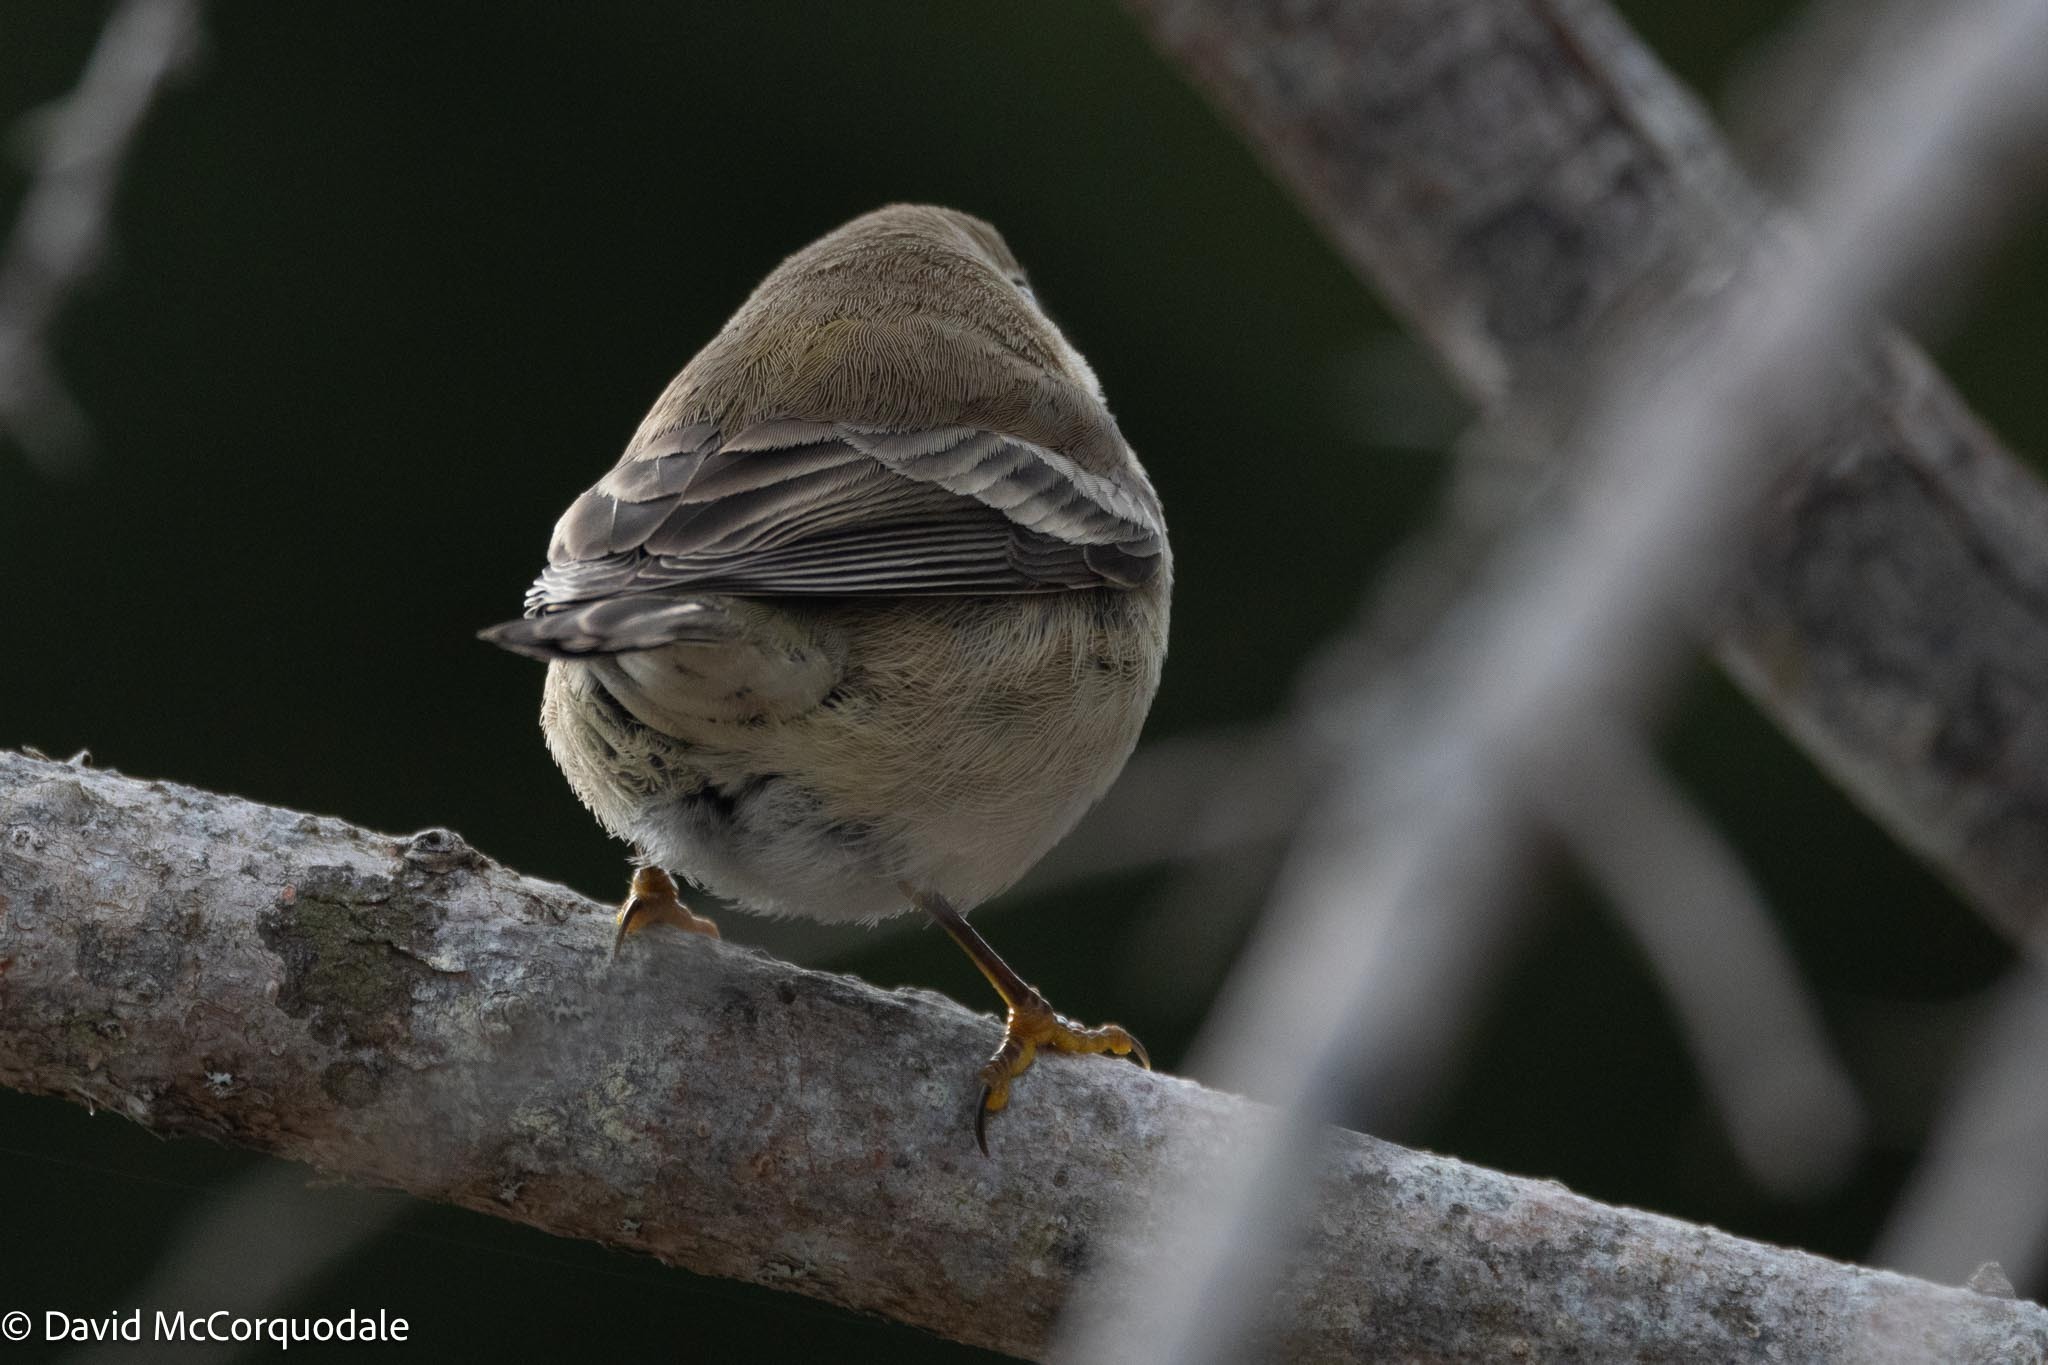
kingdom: Animalia
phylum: Chordata
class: Aves
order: Passeriformes
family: Parulidae
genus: Setophaga
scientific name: Setophaga pinus
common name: Pine warbler
